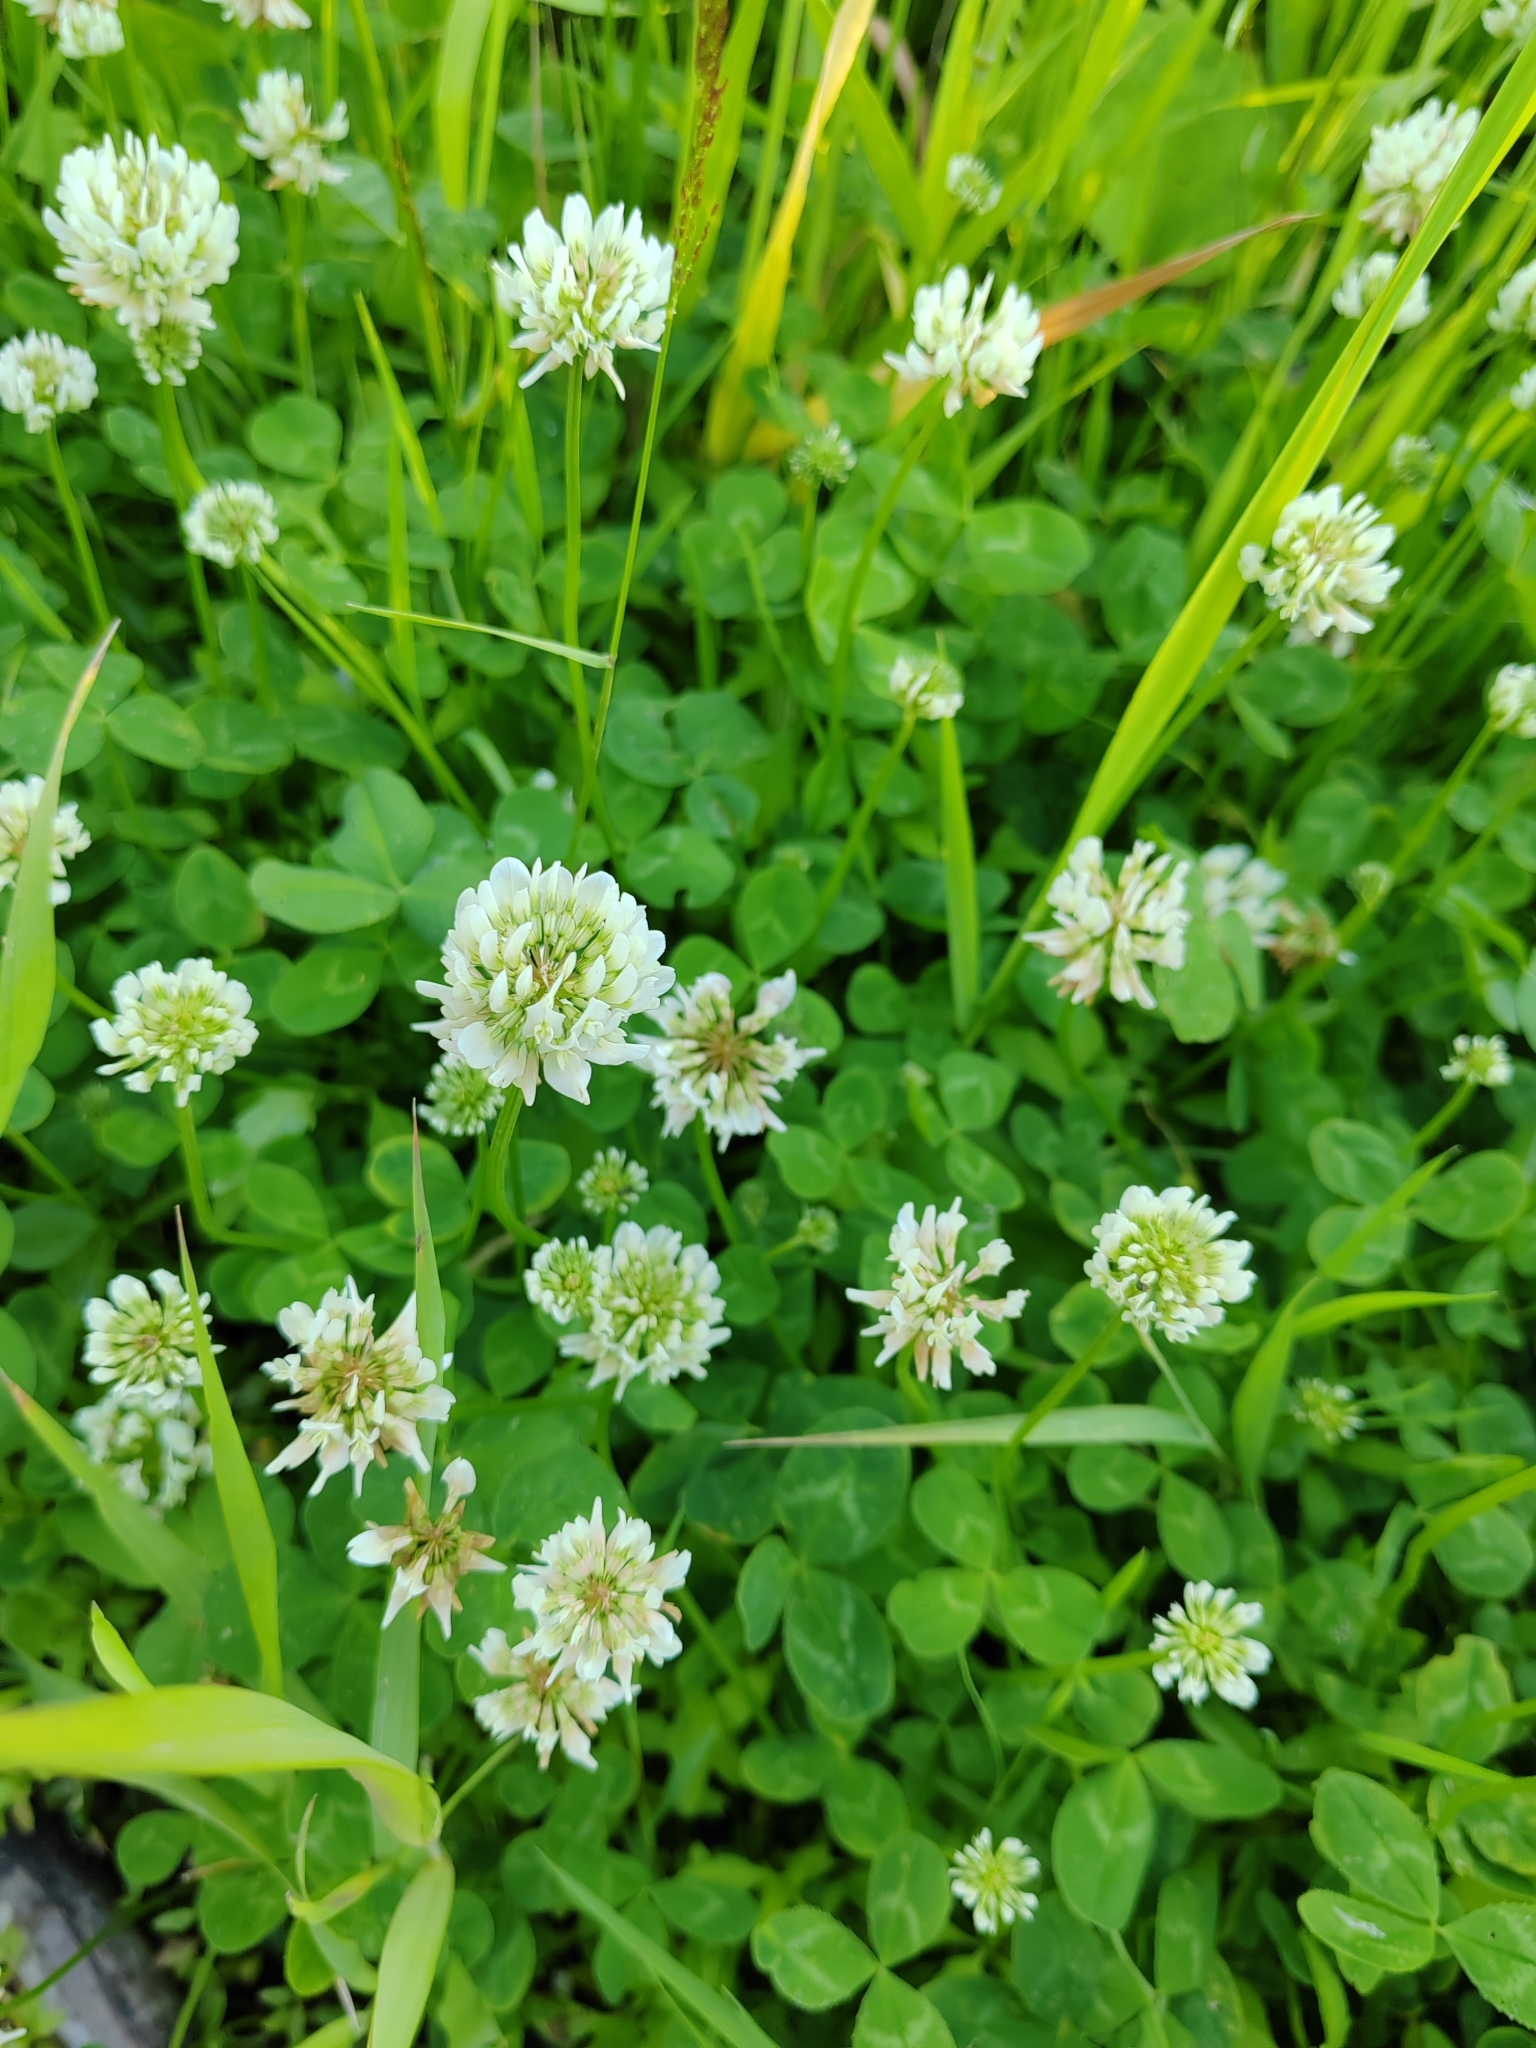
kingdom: Plantae
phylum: Tracheophyta
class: Magnoliopsida
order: Fabales
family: Fabaceae
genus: Trifolium
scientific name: Trifolium repens
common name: White clover
